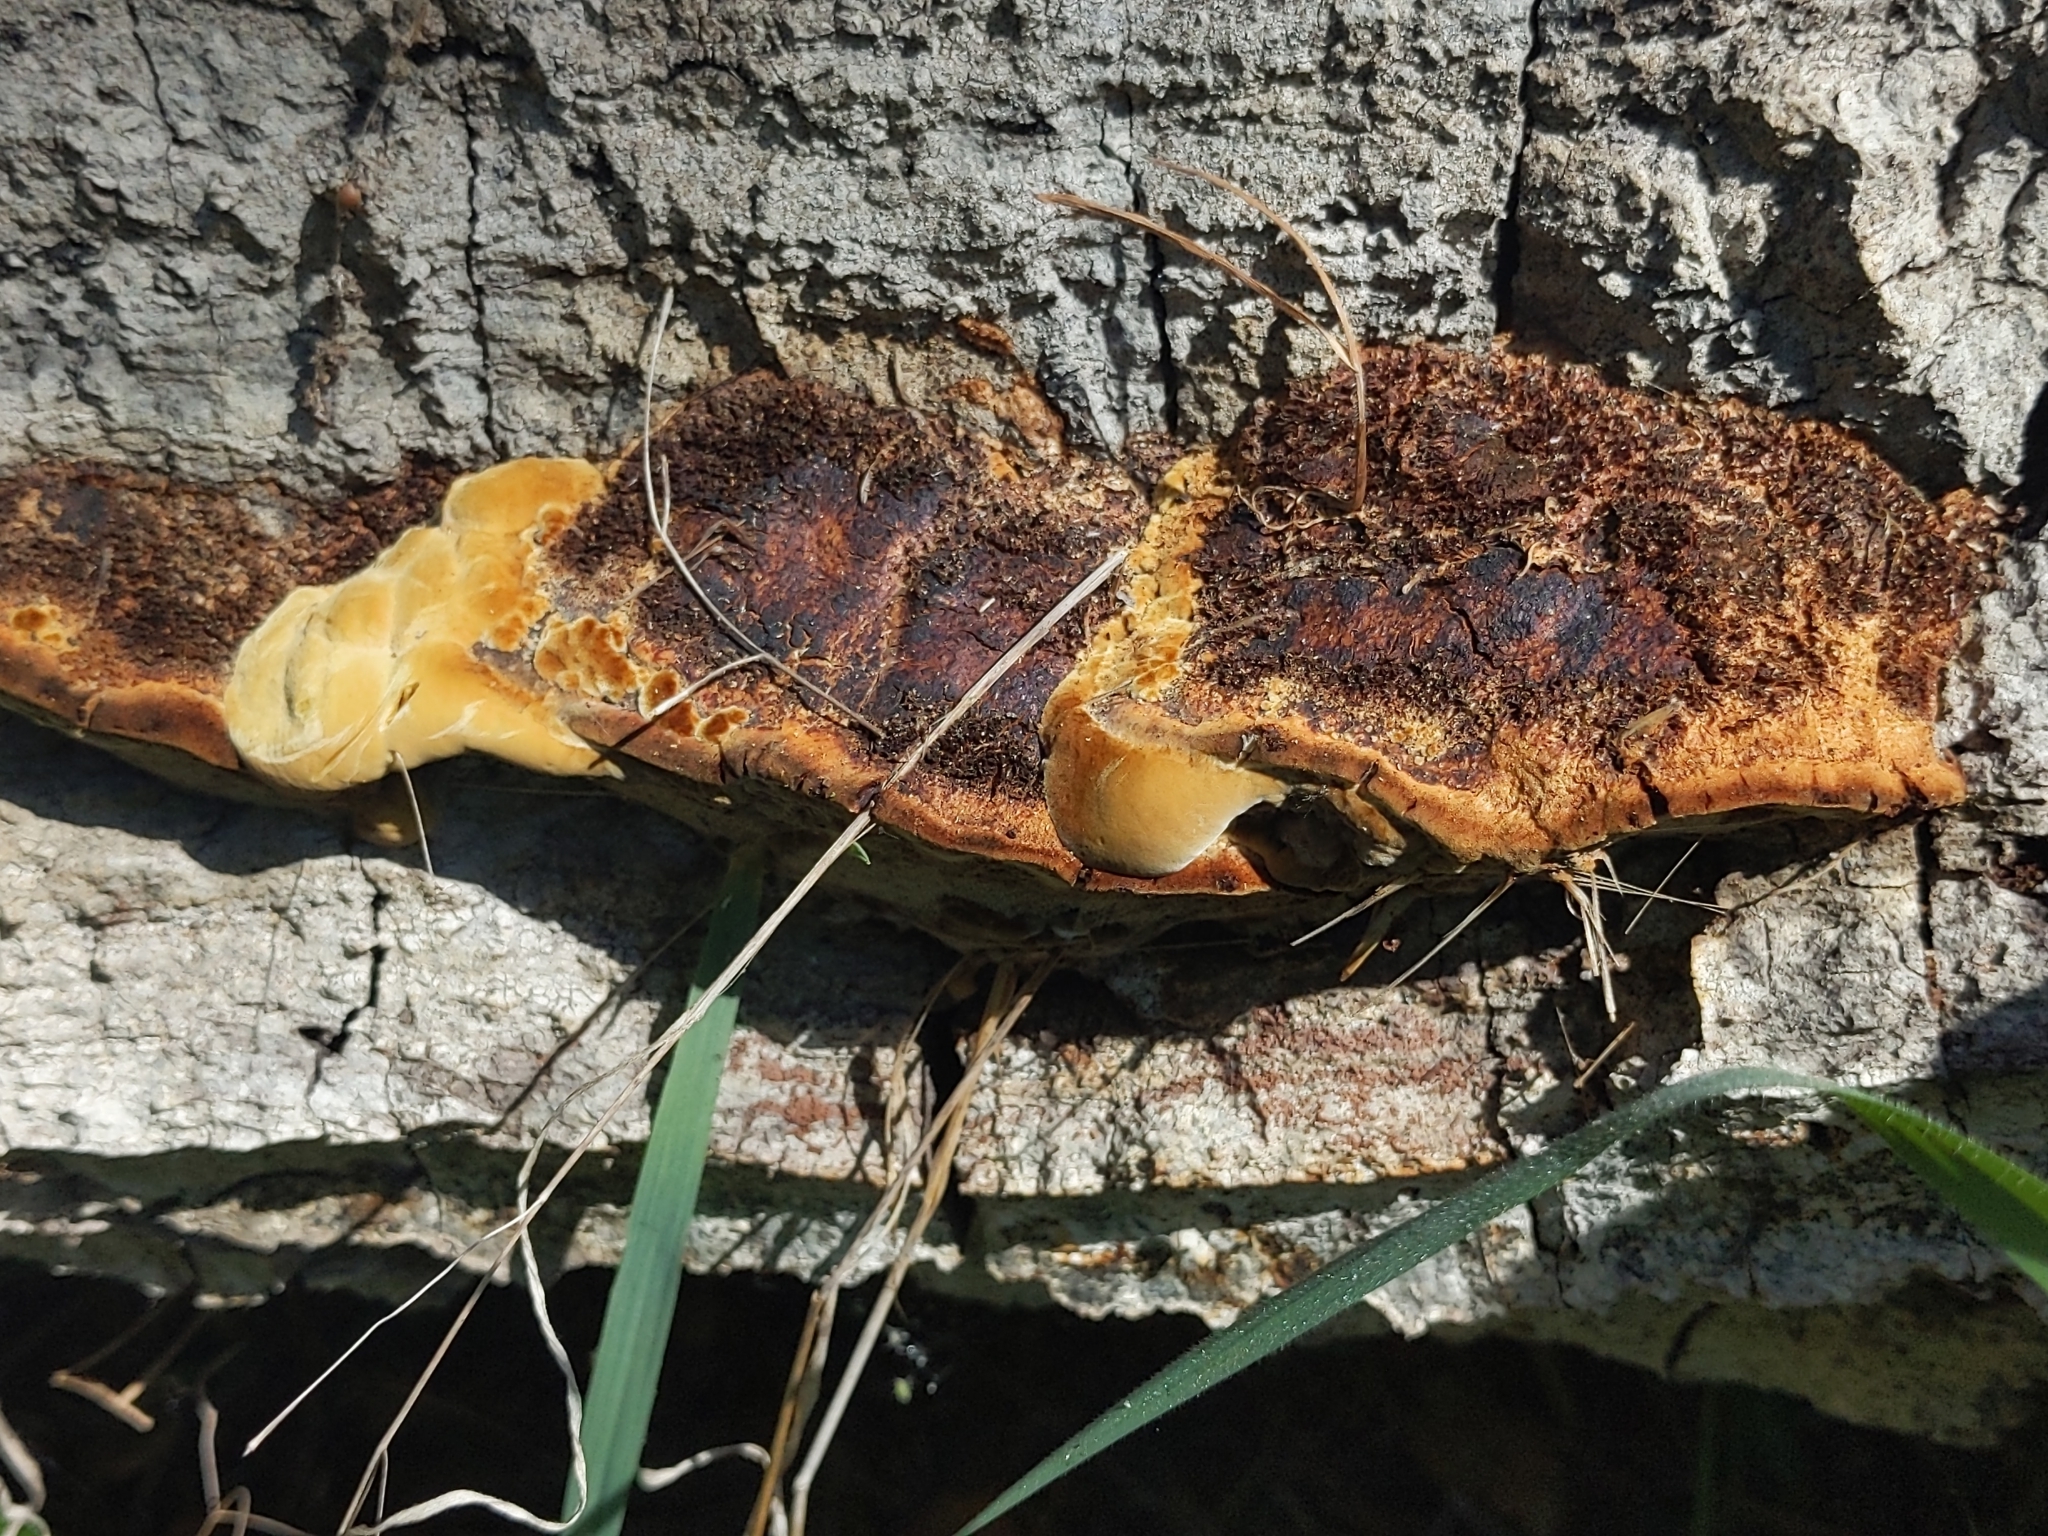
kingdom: Fungi
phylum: Basidiomycota
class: Agaricomycetes
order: Hymenochaetales
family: Hymenochaetaceae
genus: Phellinus
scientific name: Phellinus gilvus
